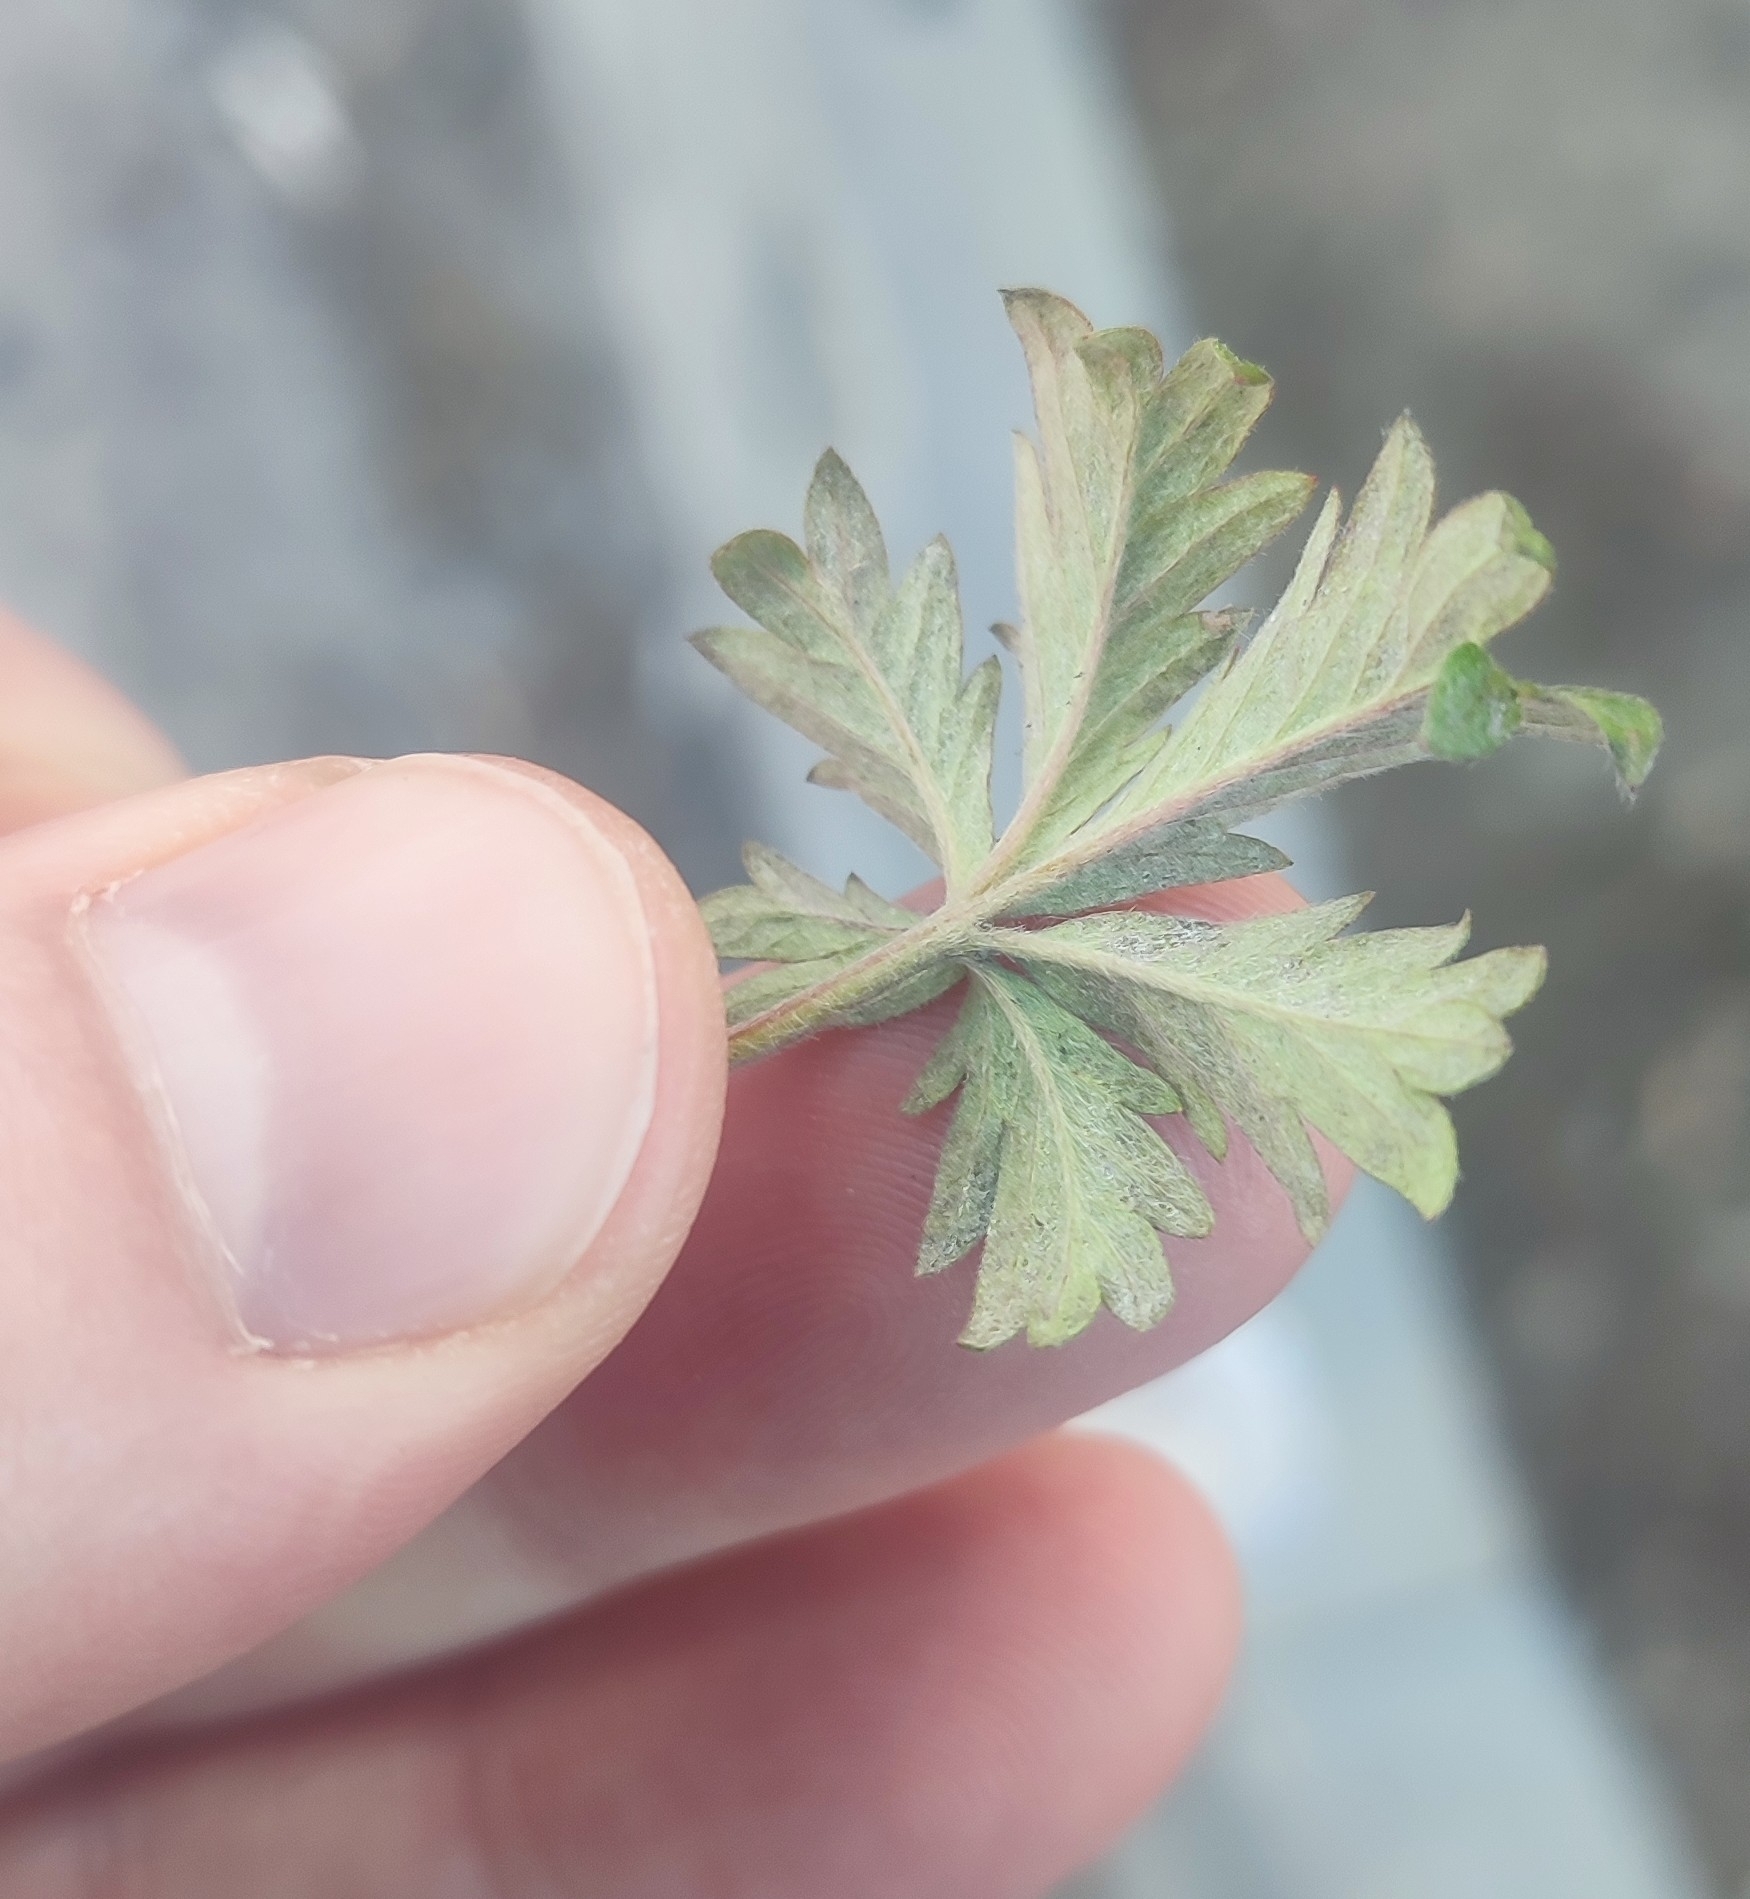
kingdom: Plantae
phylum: Tracheophyta
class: Magnoliopsida
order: Rosales
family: Rosaceae
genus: Potentilla
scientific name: Potentilla argentea
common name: Hoary cinquefoil
